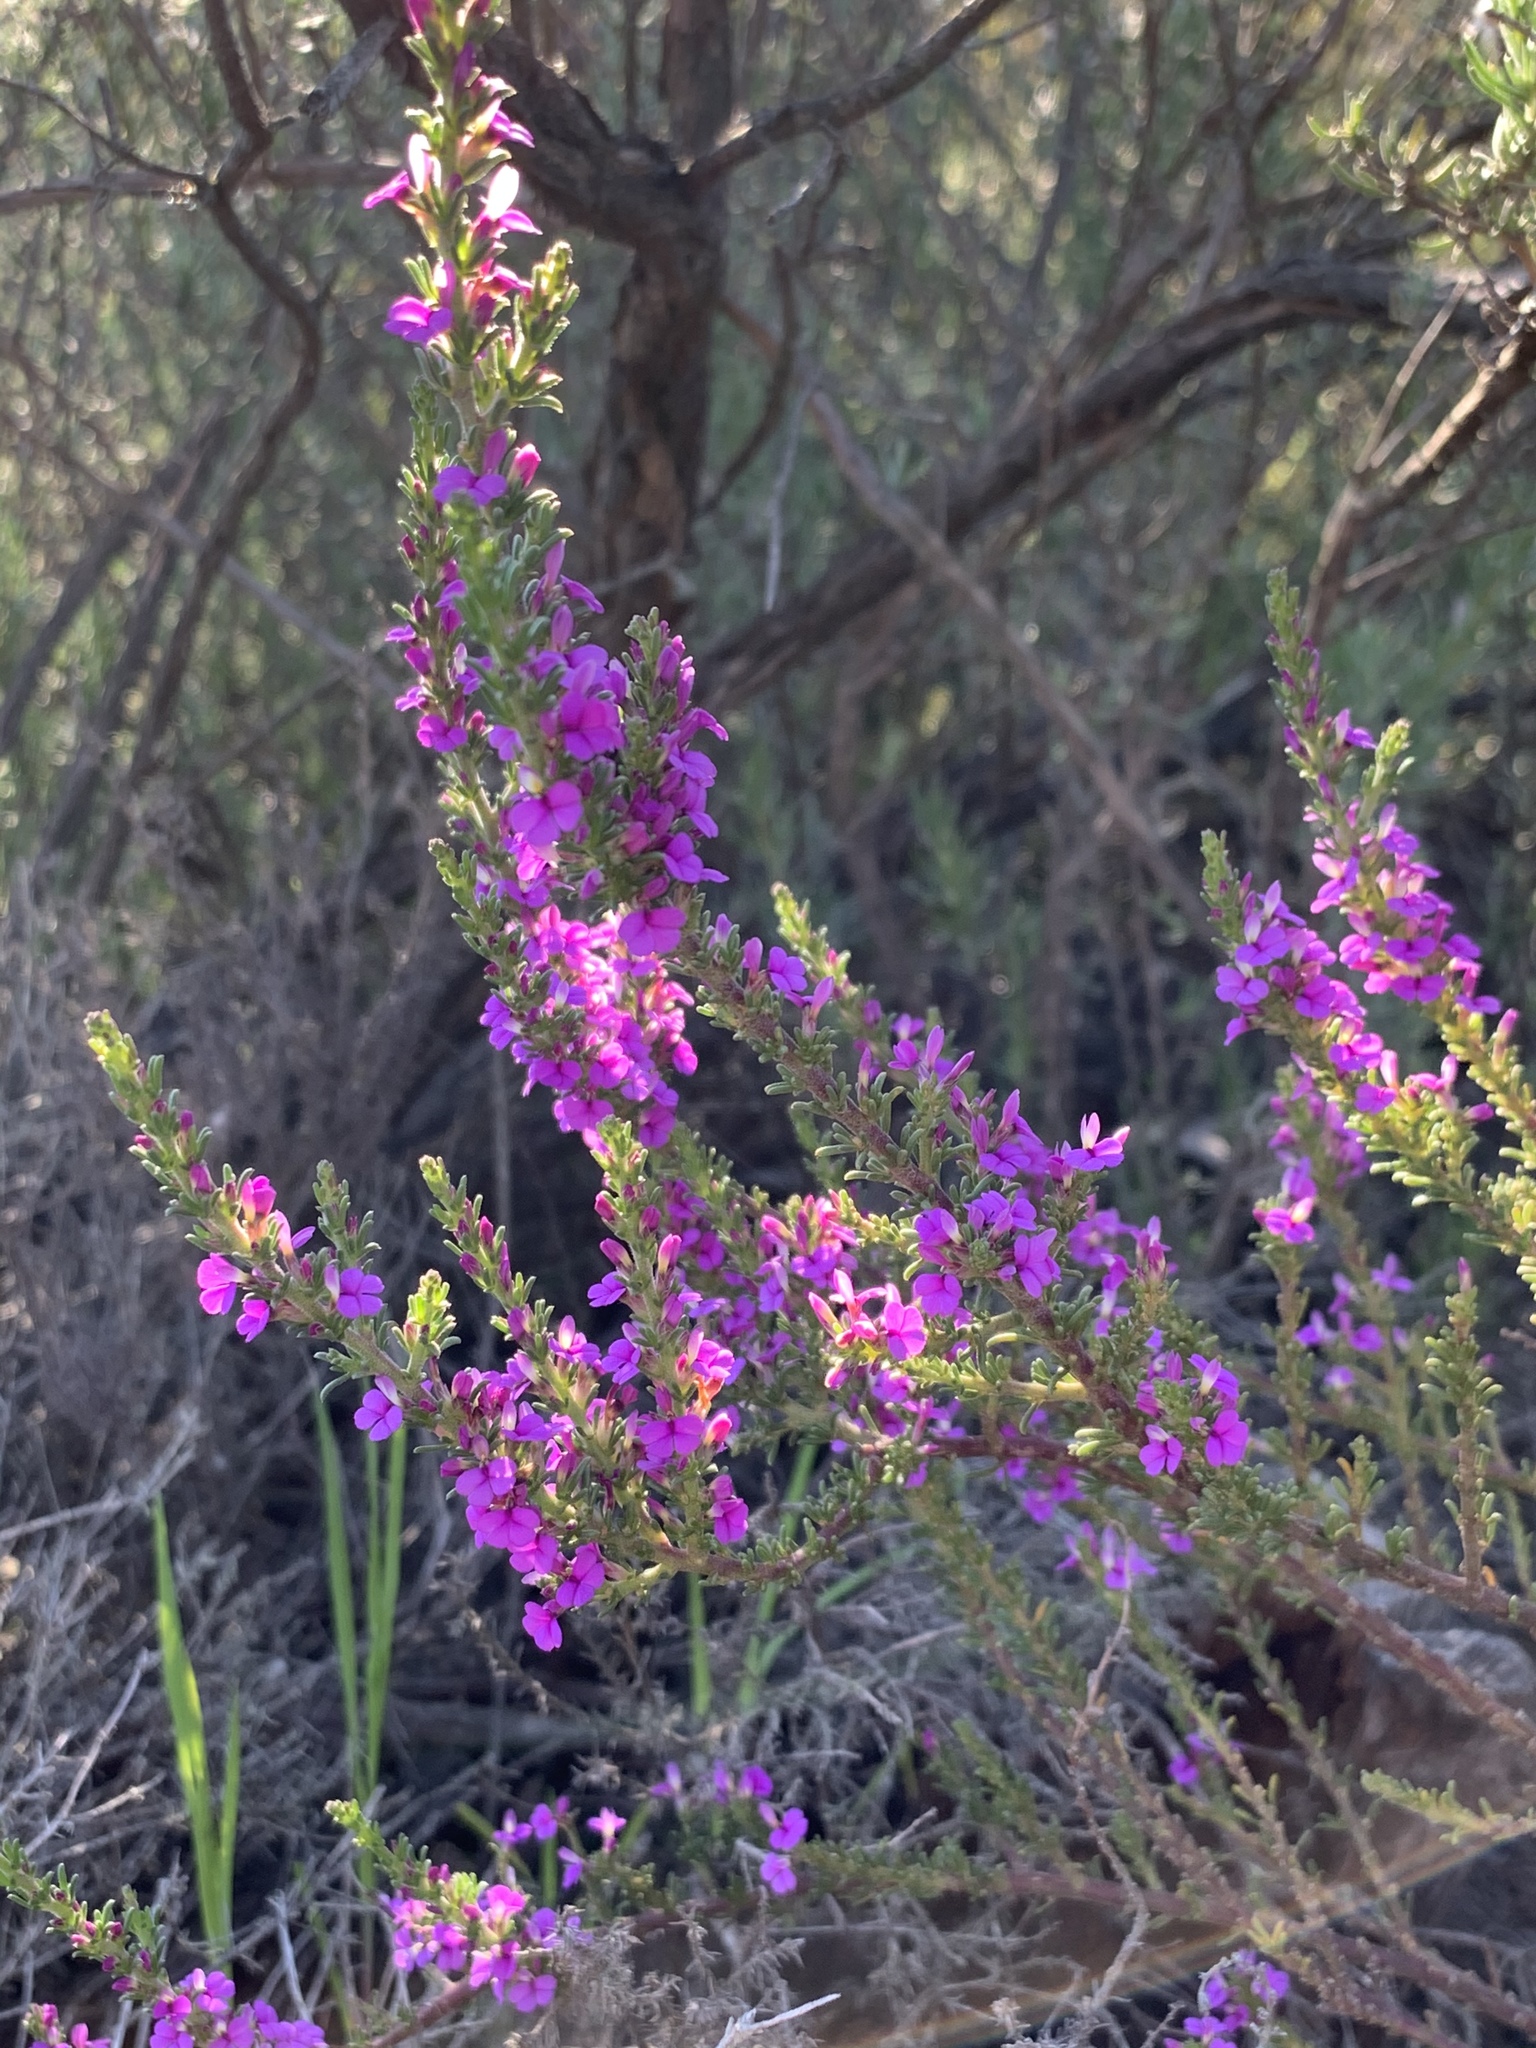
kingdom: Plantae
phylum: Tracheophyta
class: Magnoliopsida
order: Fabales
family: Polygalaceae
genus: Muraltia
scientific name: Muraltia heisteria
